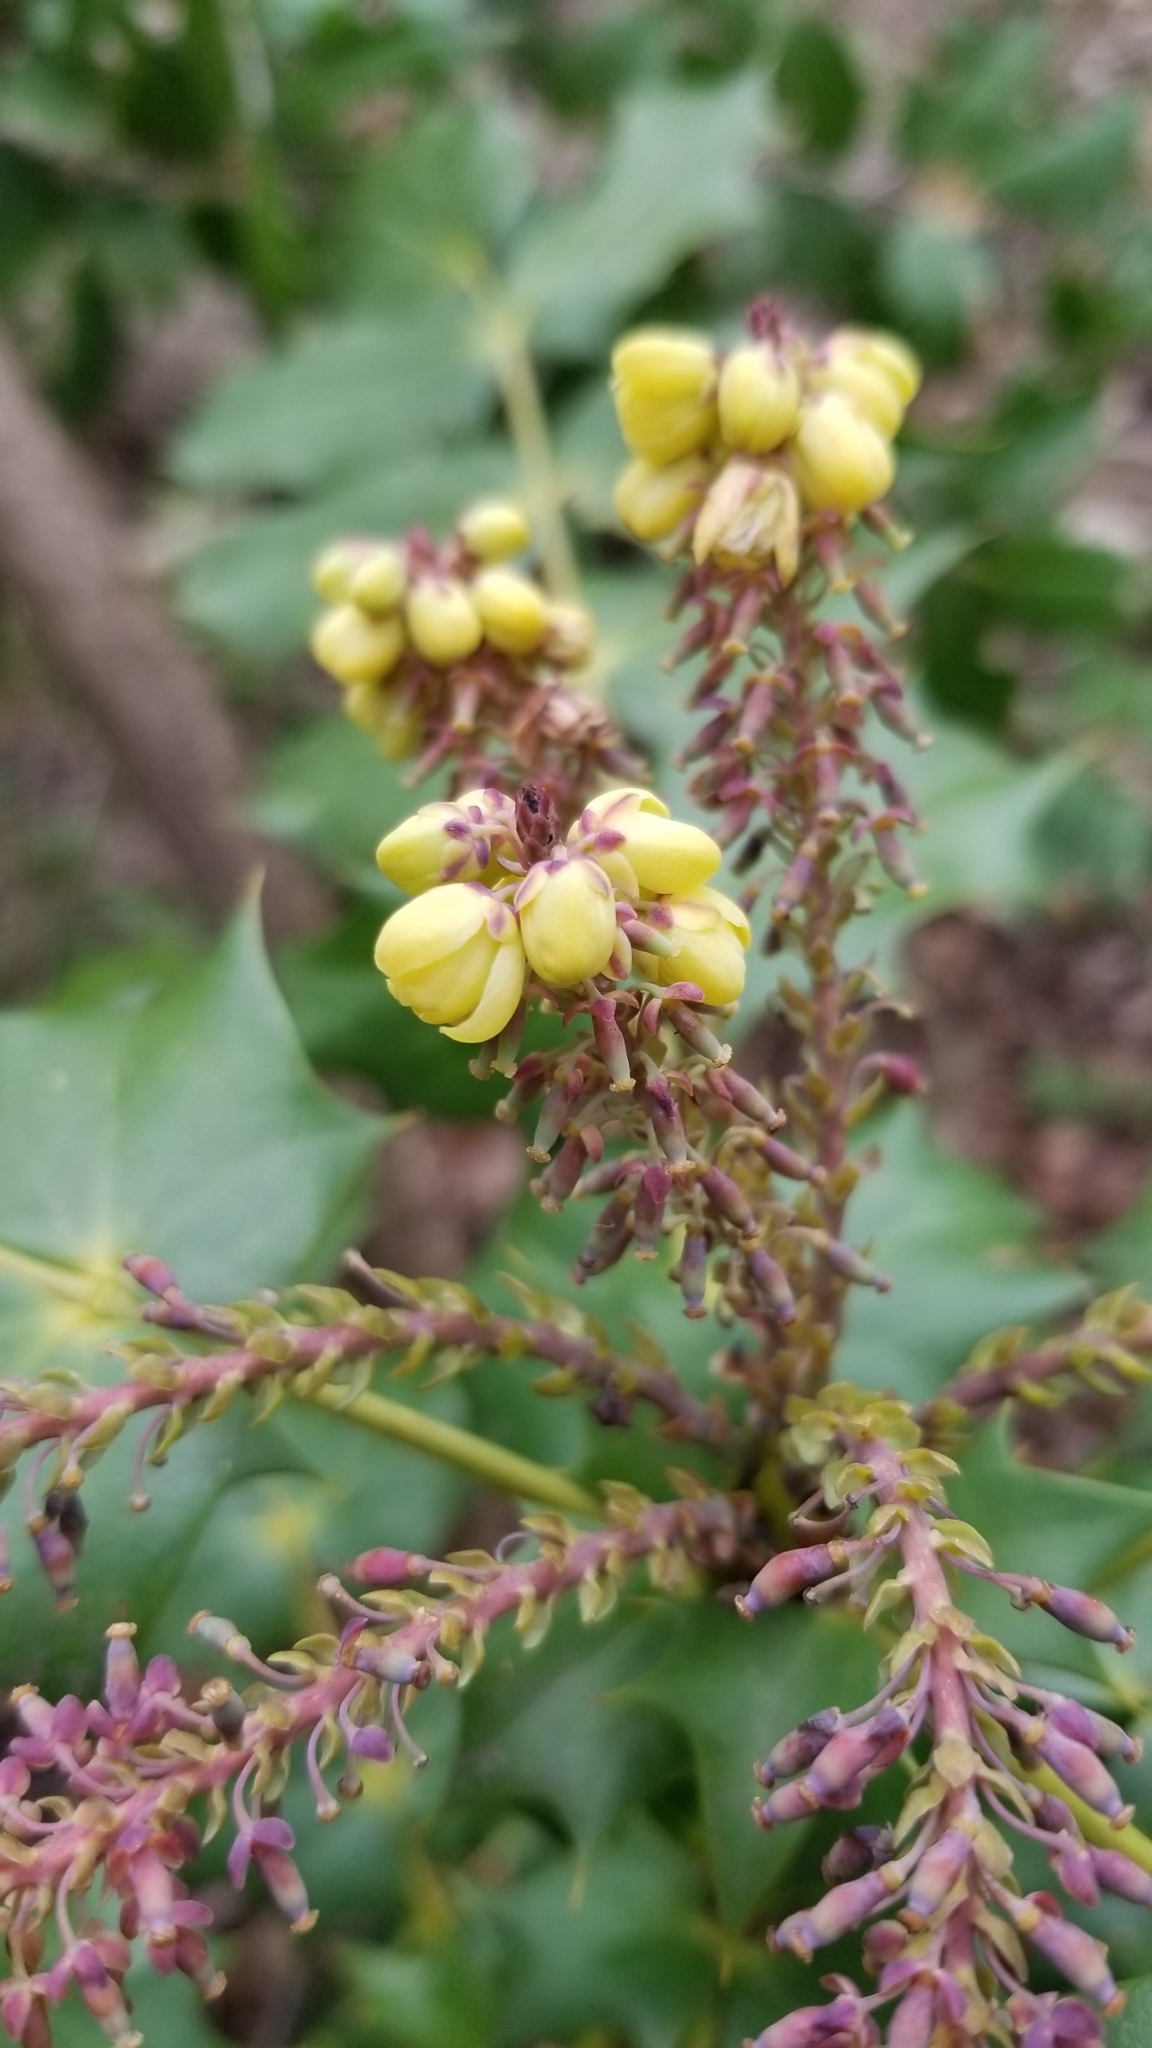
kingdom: Plantae
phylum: Tracheophyta
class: Magnoliopsida
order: Ranunculales
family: Berberidaceae
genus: Mahonia
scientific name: Mahonia bealei
